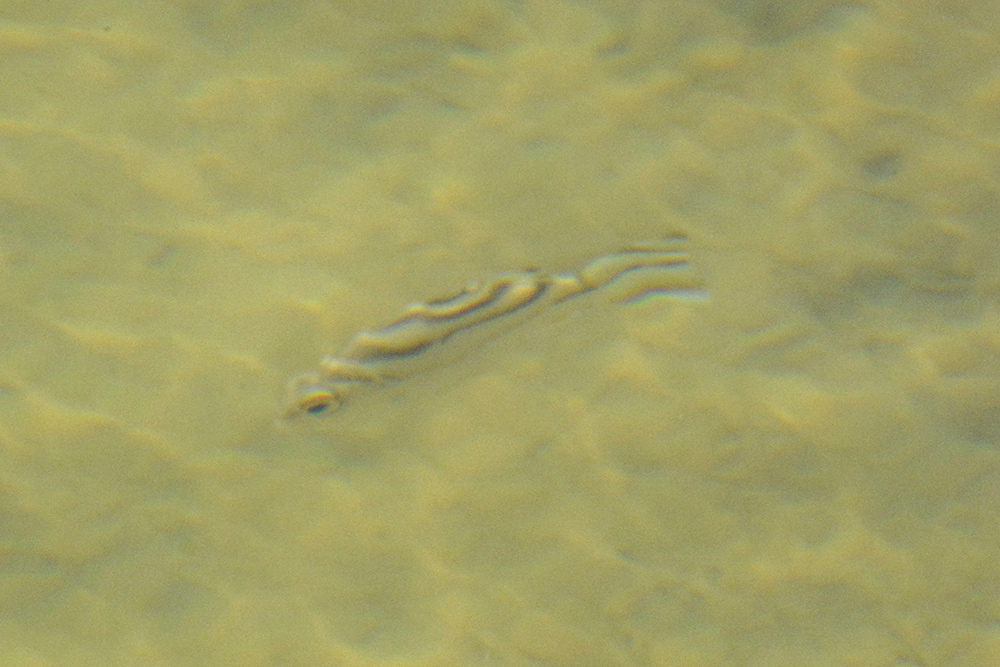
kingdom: Animalia
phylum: Chordata
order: Perciformes
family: Terapontidae
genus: Terapon
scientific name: Terapon jarbua
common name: Jarbua terapon
